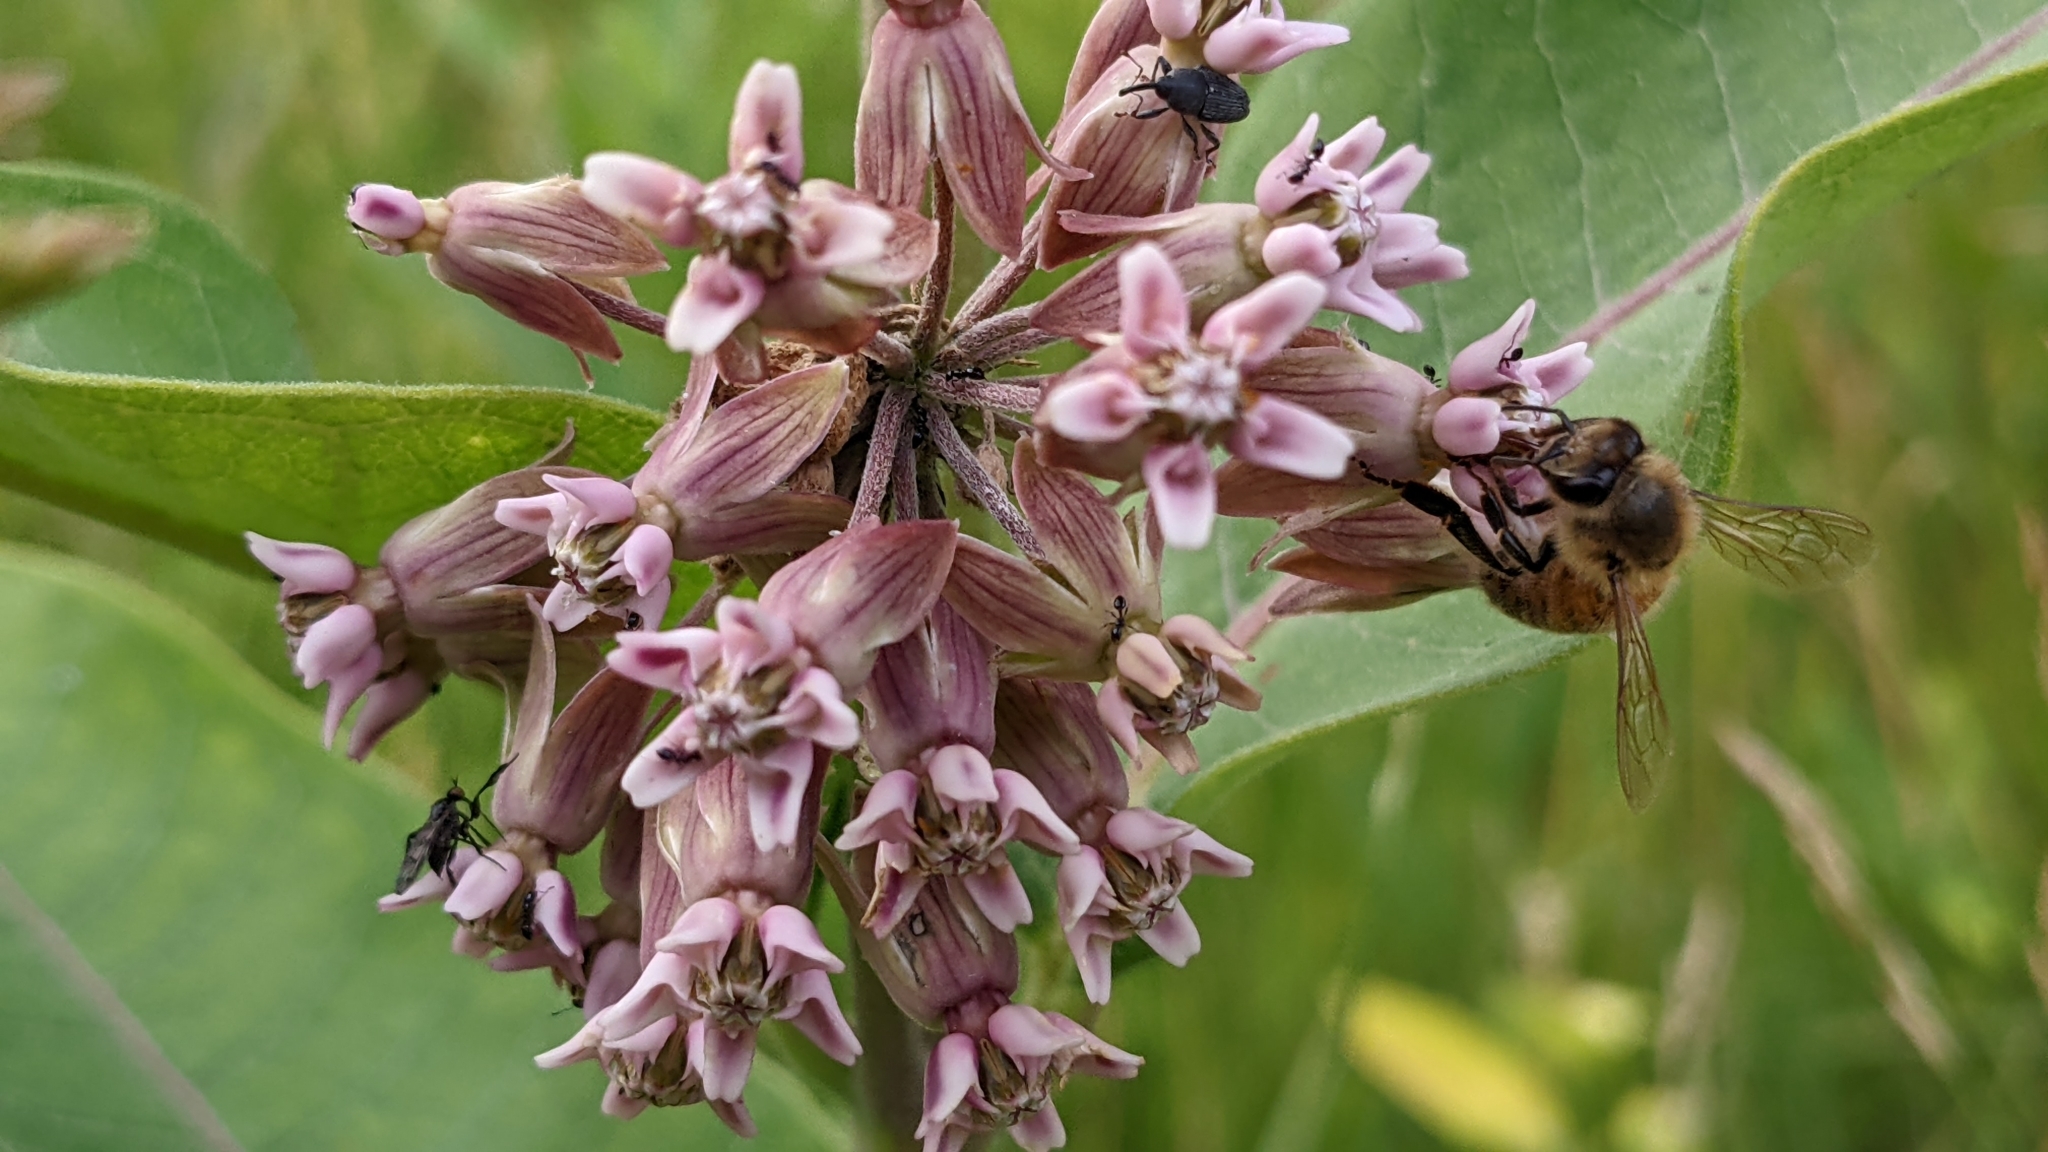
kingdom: Plantae
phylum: Tracheophyta
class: Magnoliopsida
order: Gentianales
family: Apocynaceae
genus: Asclepias
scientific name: Asclepias syriaca
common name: Common milkweed
